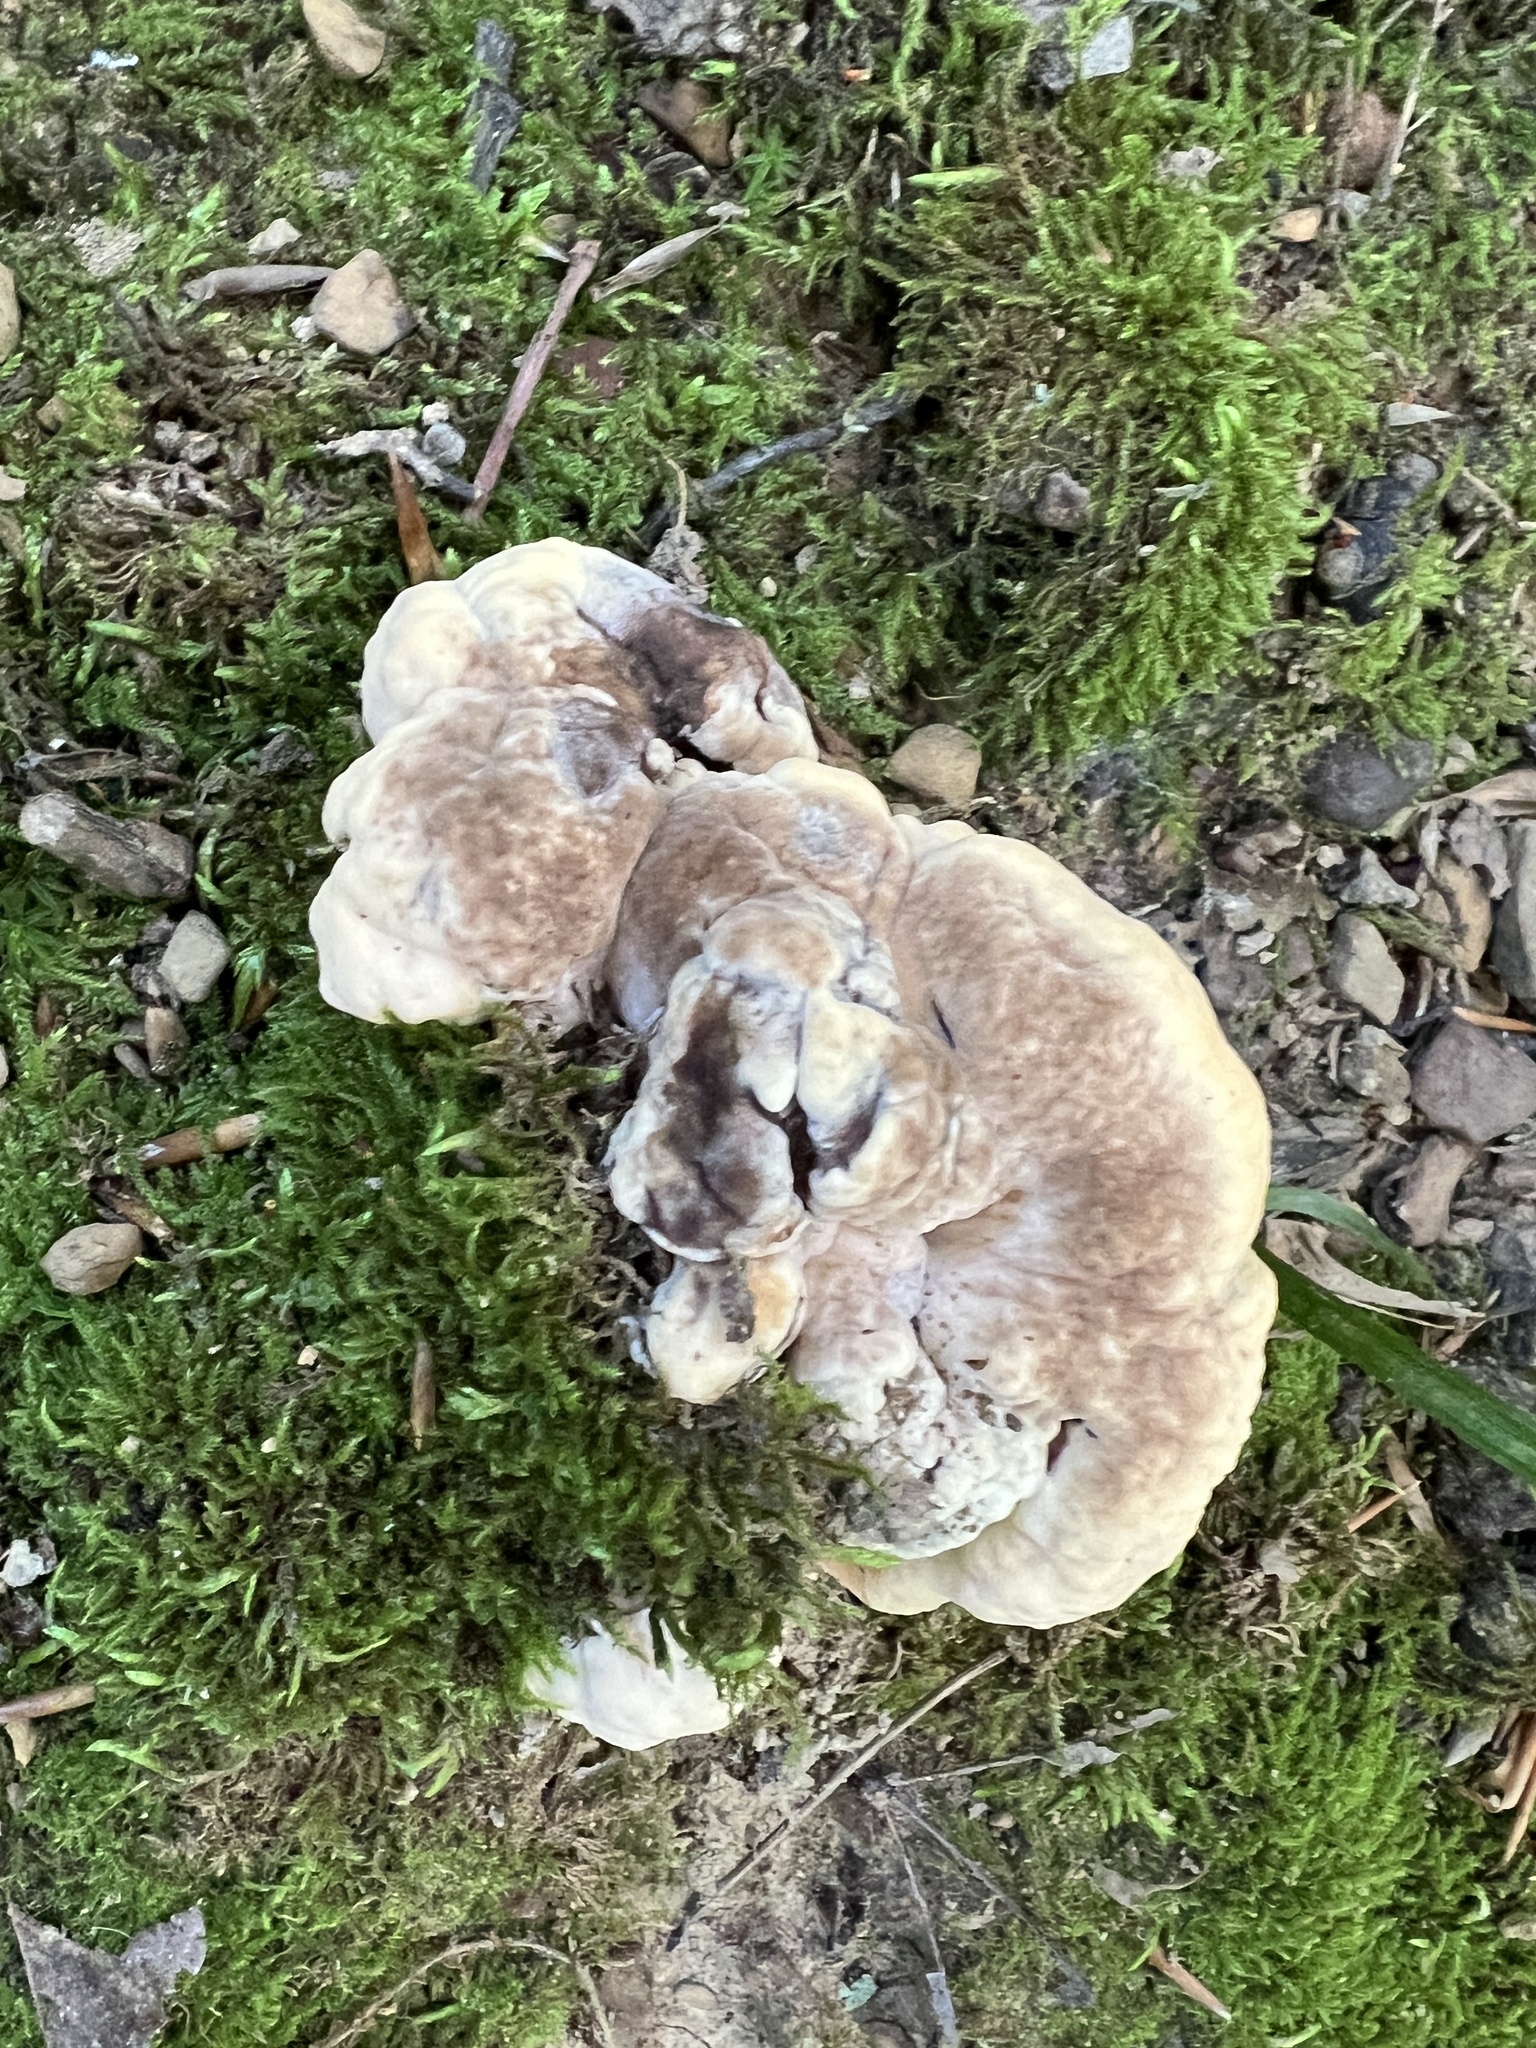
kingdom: Fungi
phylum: Basidiomycota
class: Agaricomycetes
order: Polyporales
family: Meripilaceae
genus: Meripilus
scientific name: Meripilus sumstinei
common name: Black-staining polypore
